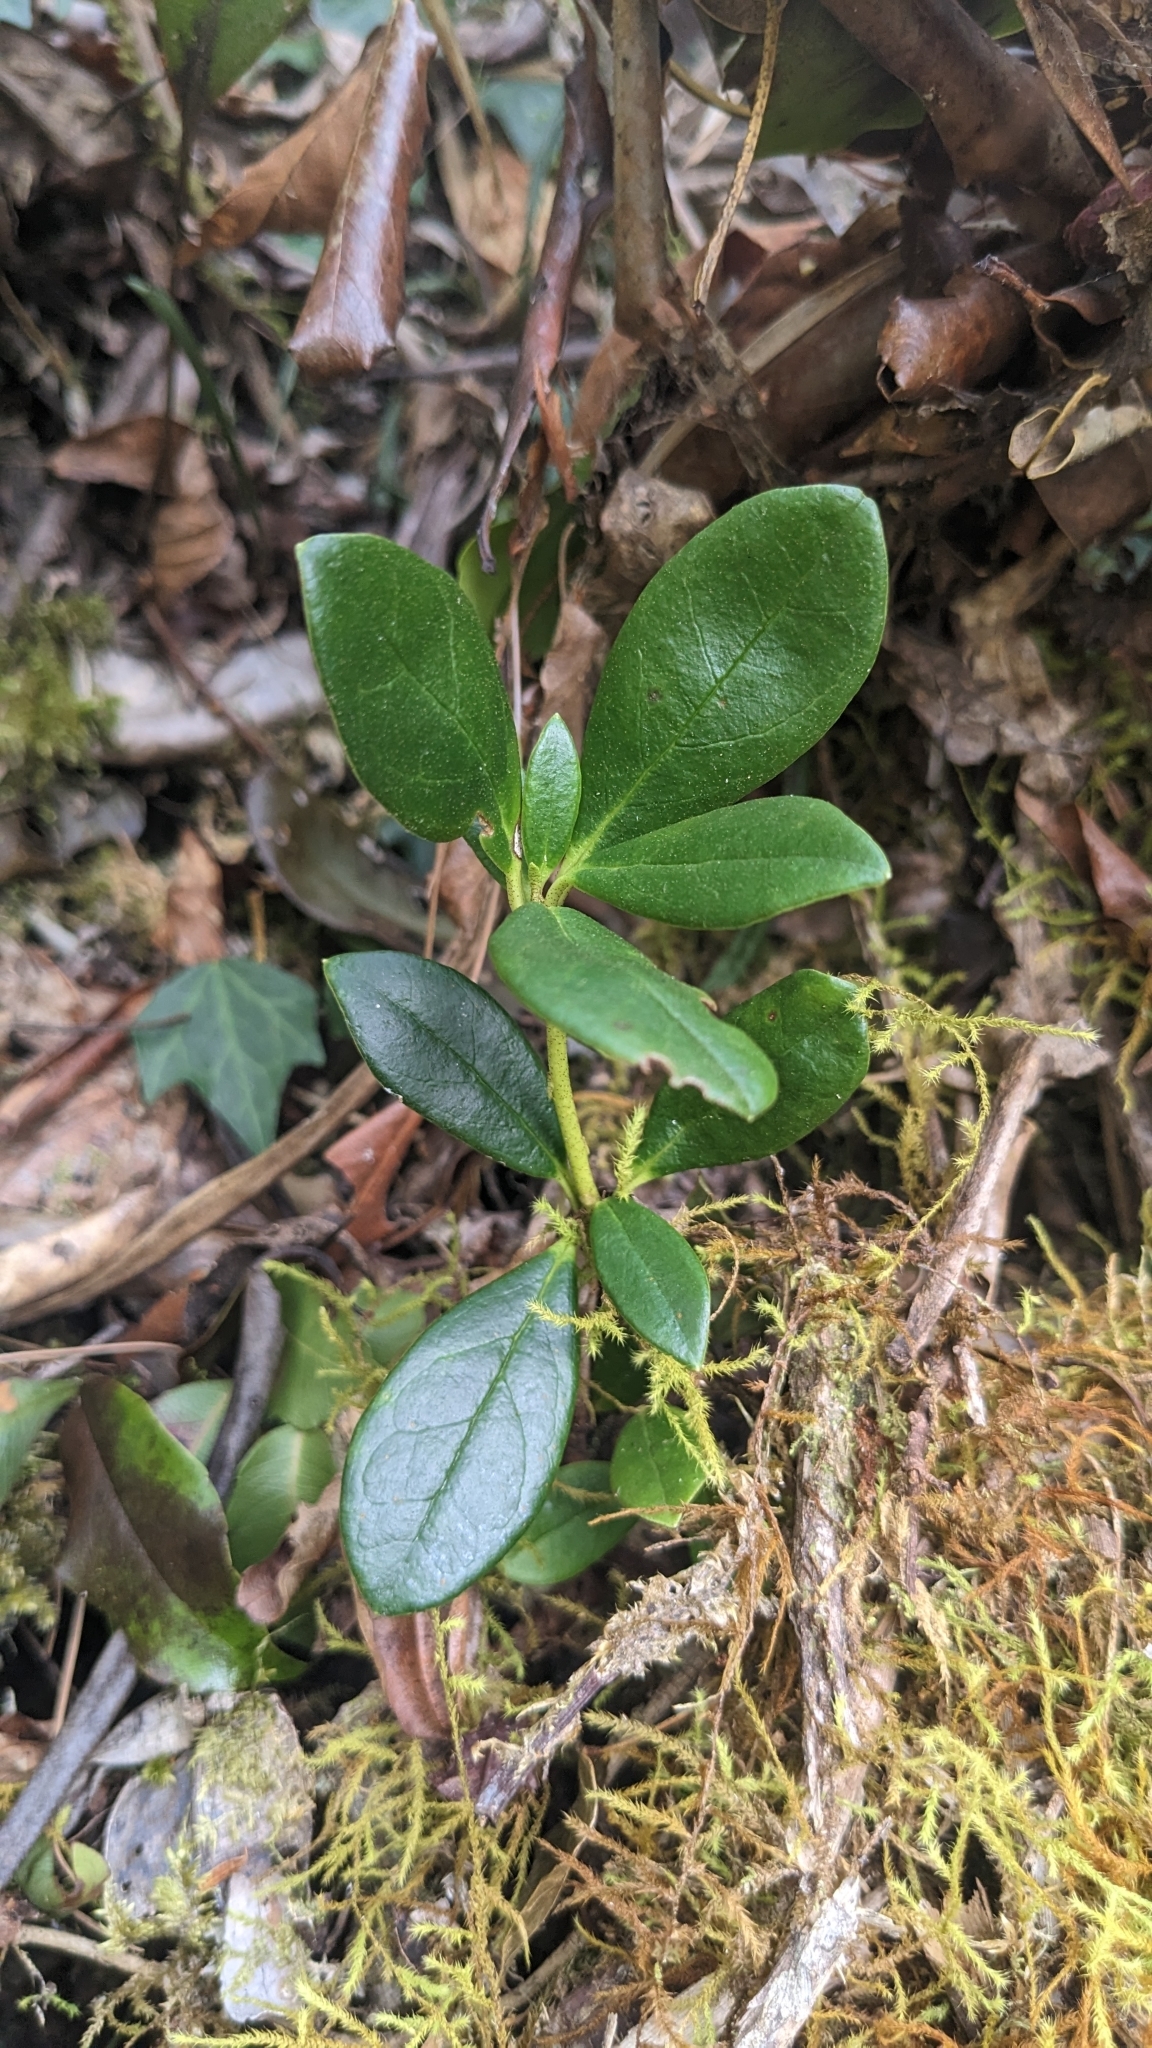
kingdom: Plantae
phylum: Tracheophyta
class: Magnoliopsida
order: Ericales
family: Ericaceae
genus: Rhododendron
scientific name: Rhododendron kawakamii
